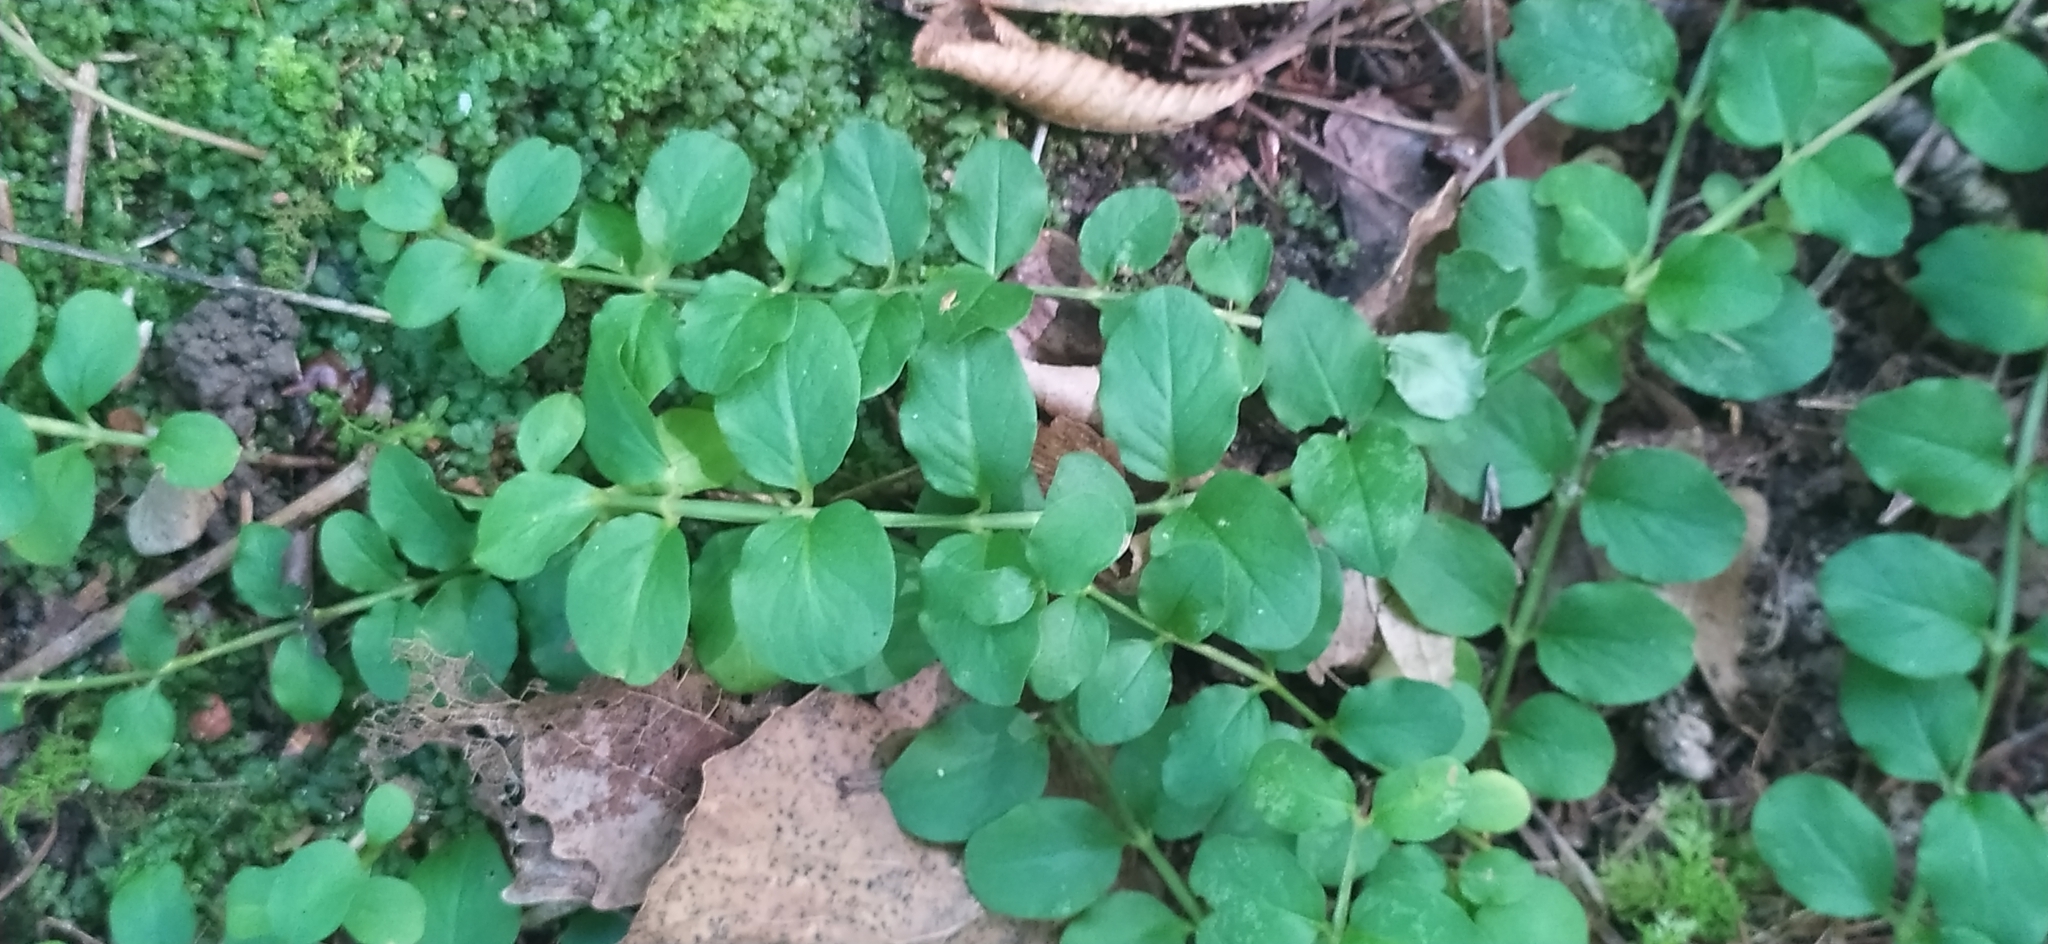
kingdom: Plantae
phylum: Tracheophyta
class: Magnoliopsida
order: Ericales
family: Primulaceae
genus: Lysimachia
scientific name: Lysimachia nummularia
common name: Moneywort
